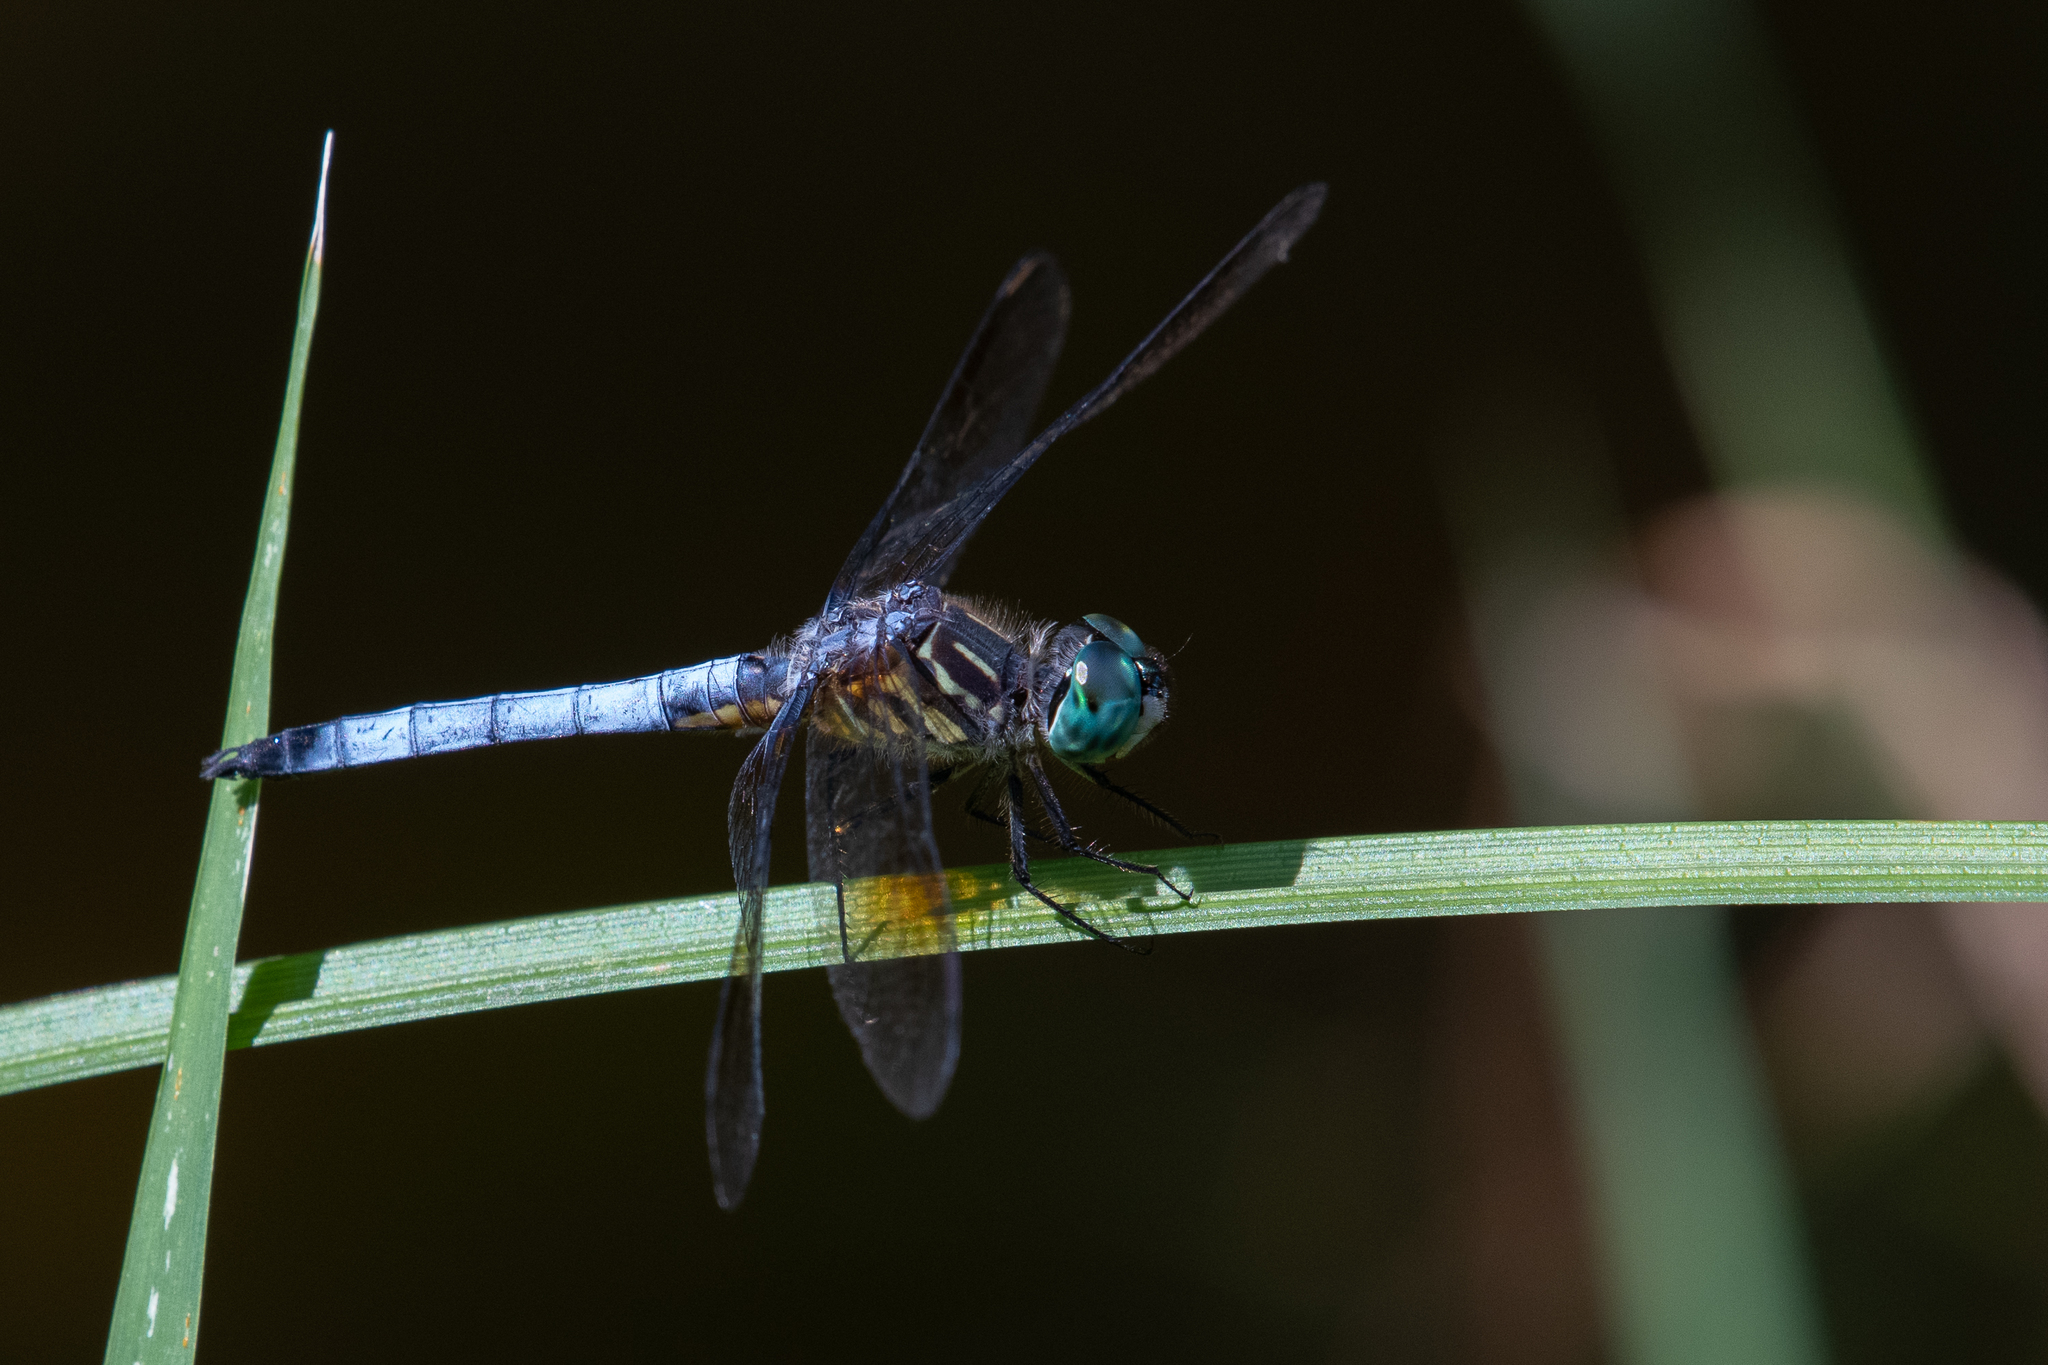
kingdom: Animalia
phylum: Arthropoda
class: Insecta
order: Odonata
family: Libellulidae
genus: Pachydiplax
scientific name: Pachydiplax longipennis
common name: Blue dasher
